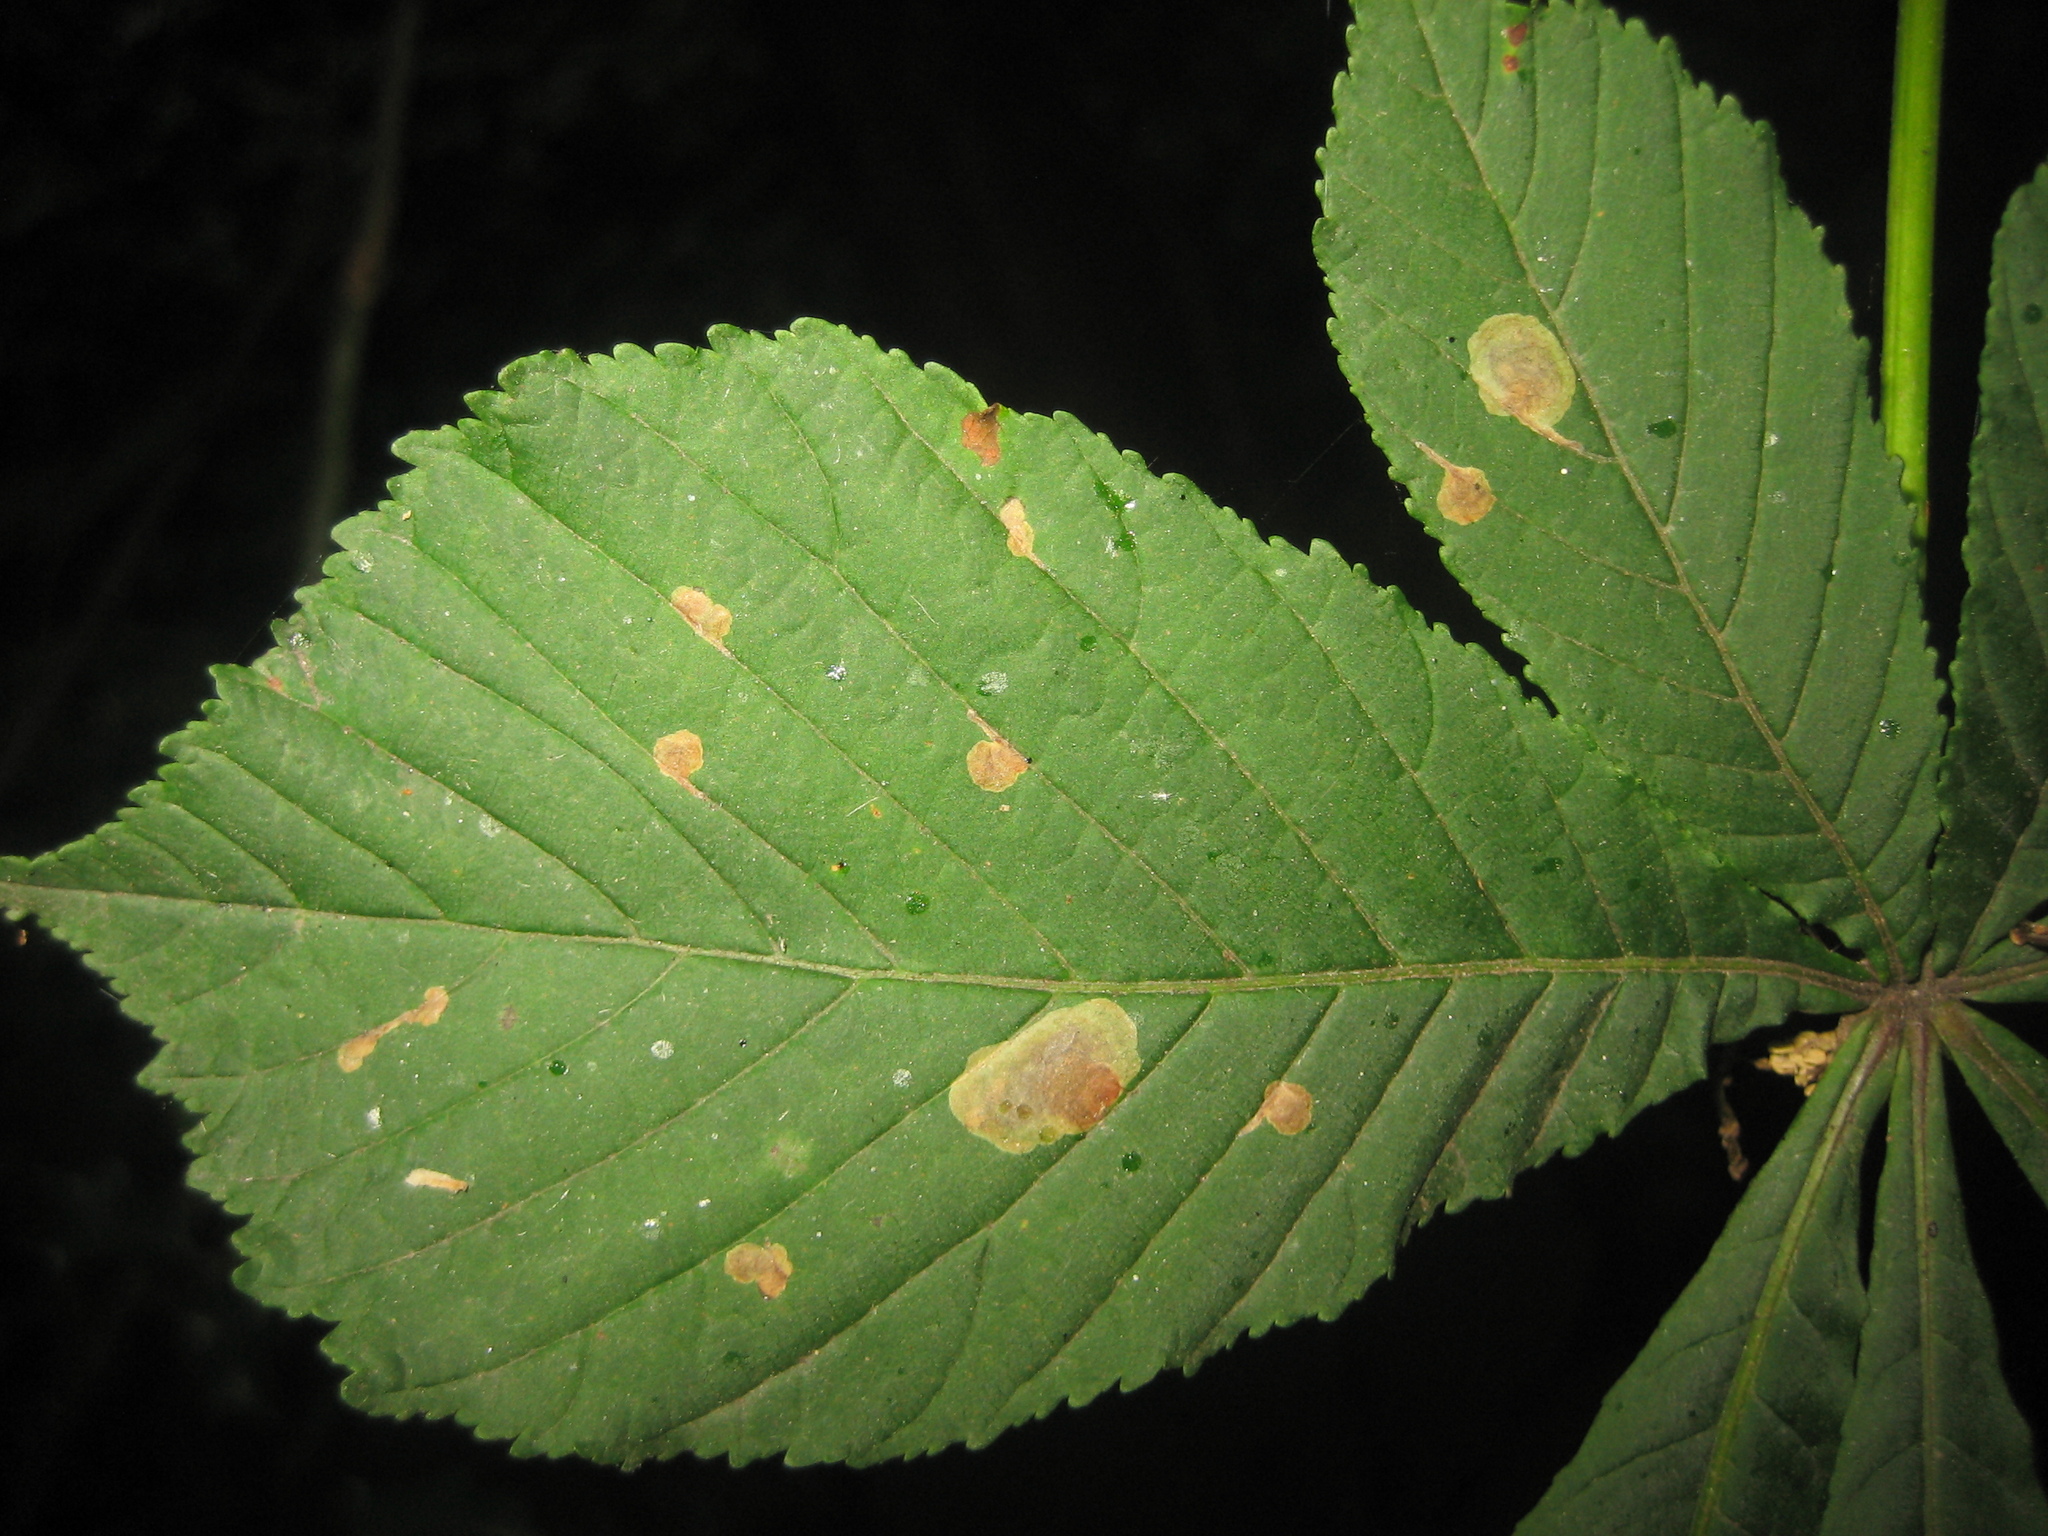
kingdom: Animalia
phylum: Arthropoda
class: Insecta
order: Lepidoptera
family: Gracillariidae
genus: Cameraria
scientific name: Cameraria ohridella
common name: Horse-chestnut leaf-miner
